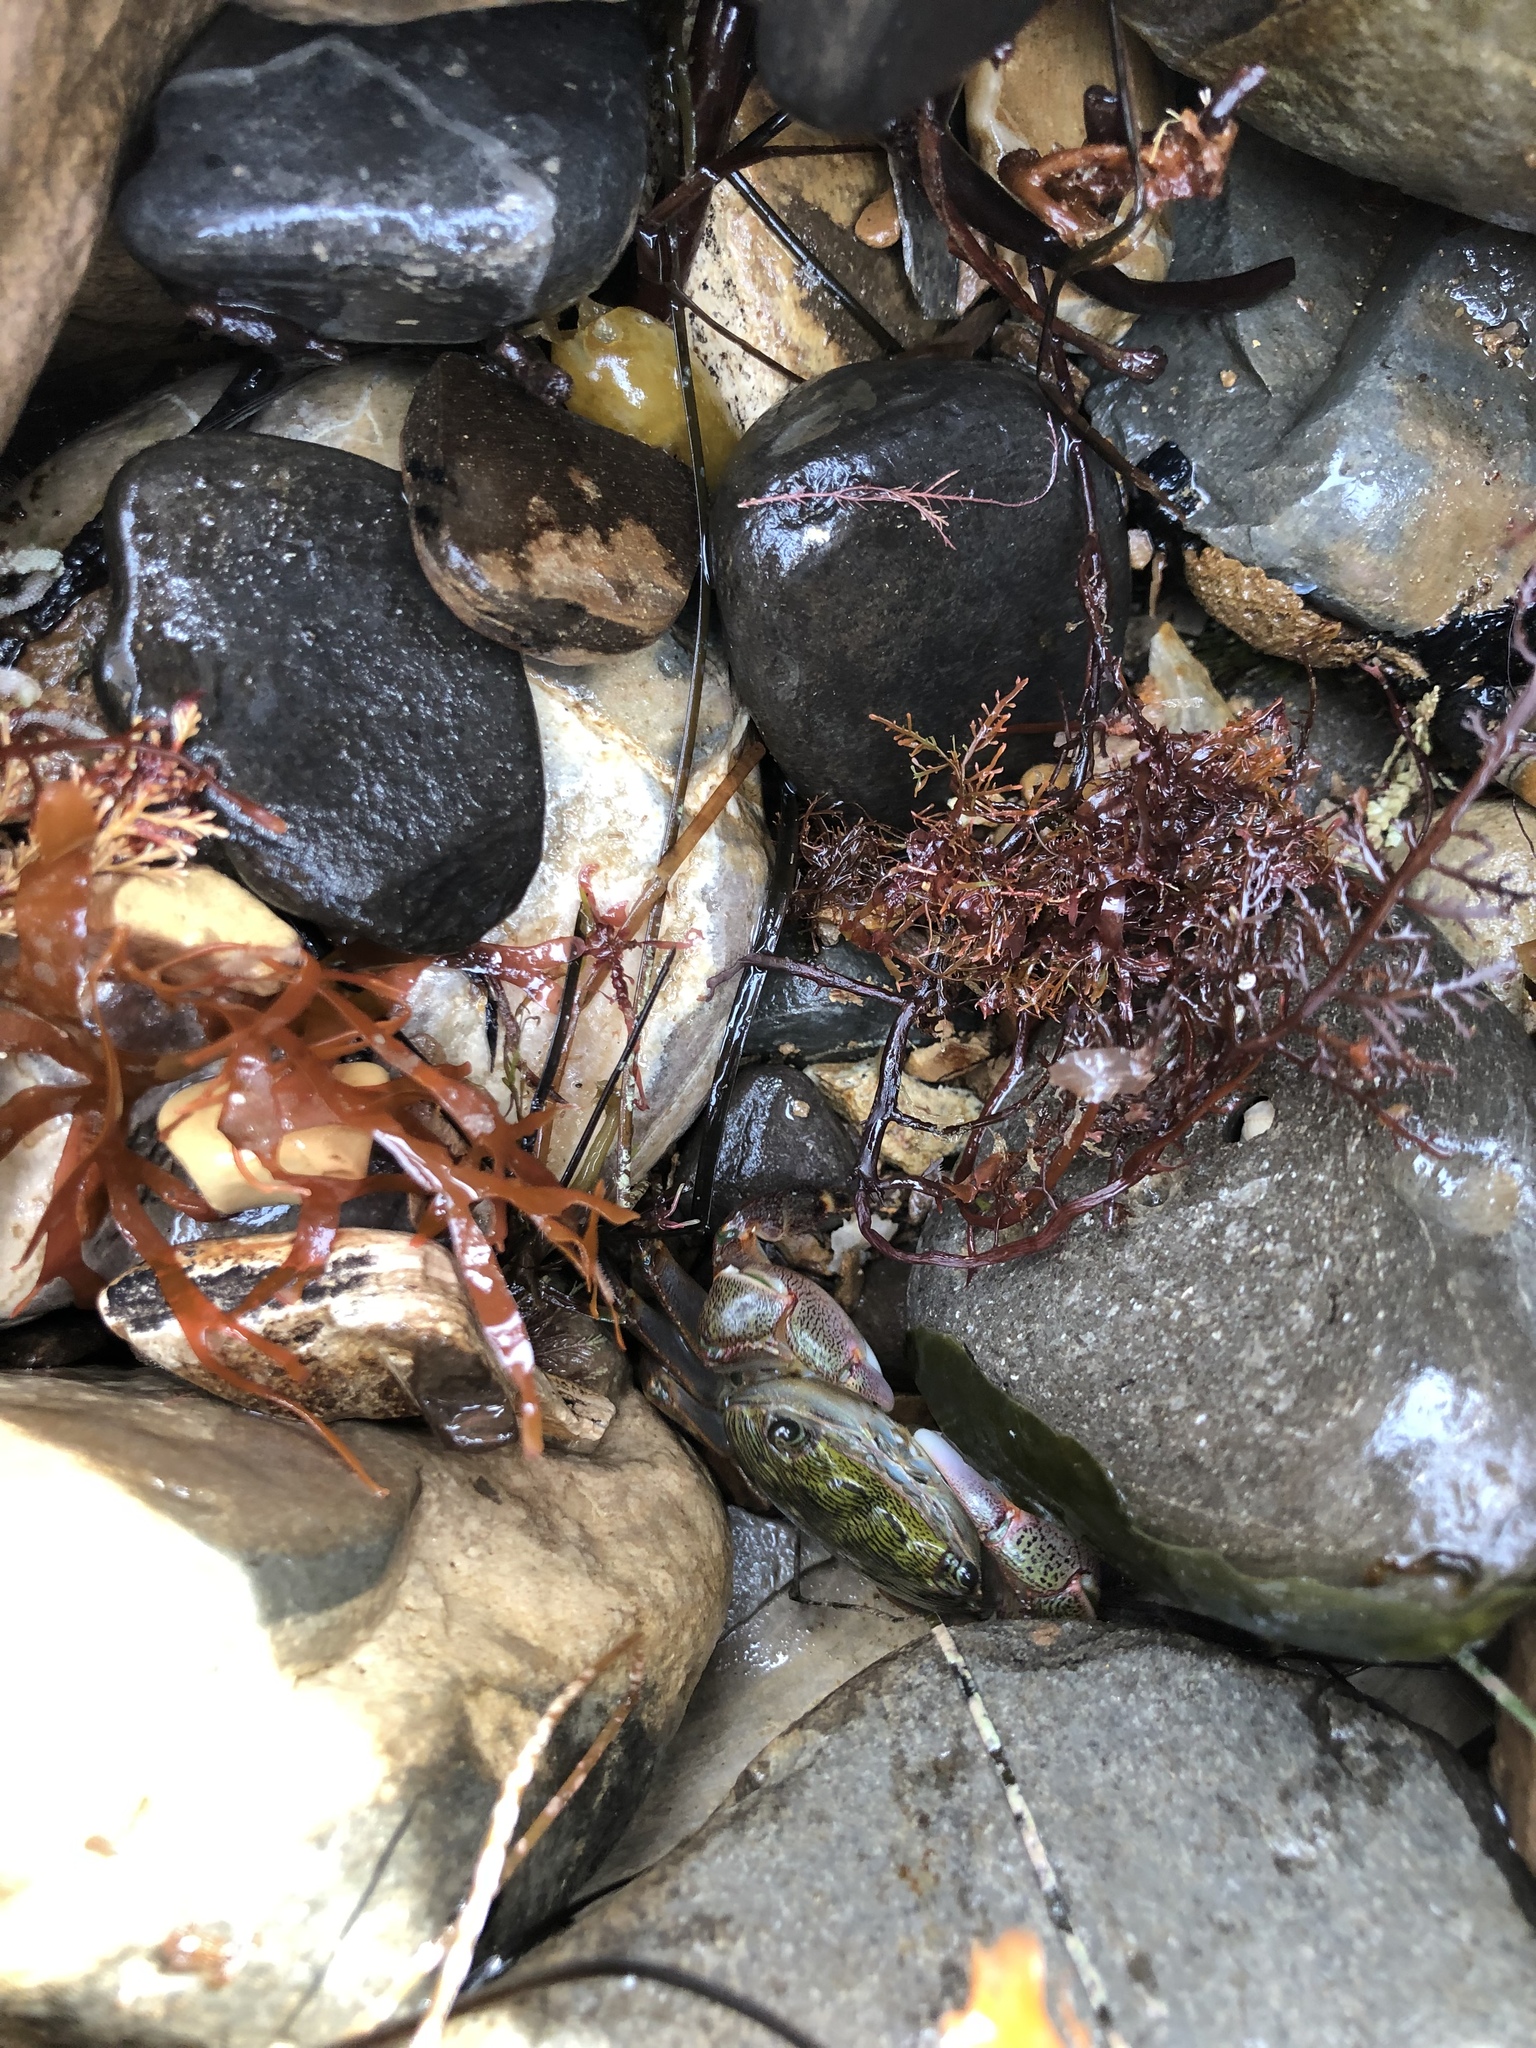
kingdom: Animalia
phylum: Arthropoda
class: Malacostraca
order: Decapoda
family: Grapsidae
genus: Pachygrapsus
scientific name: Pachygrapsus crassipes
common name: Striped shore crab
